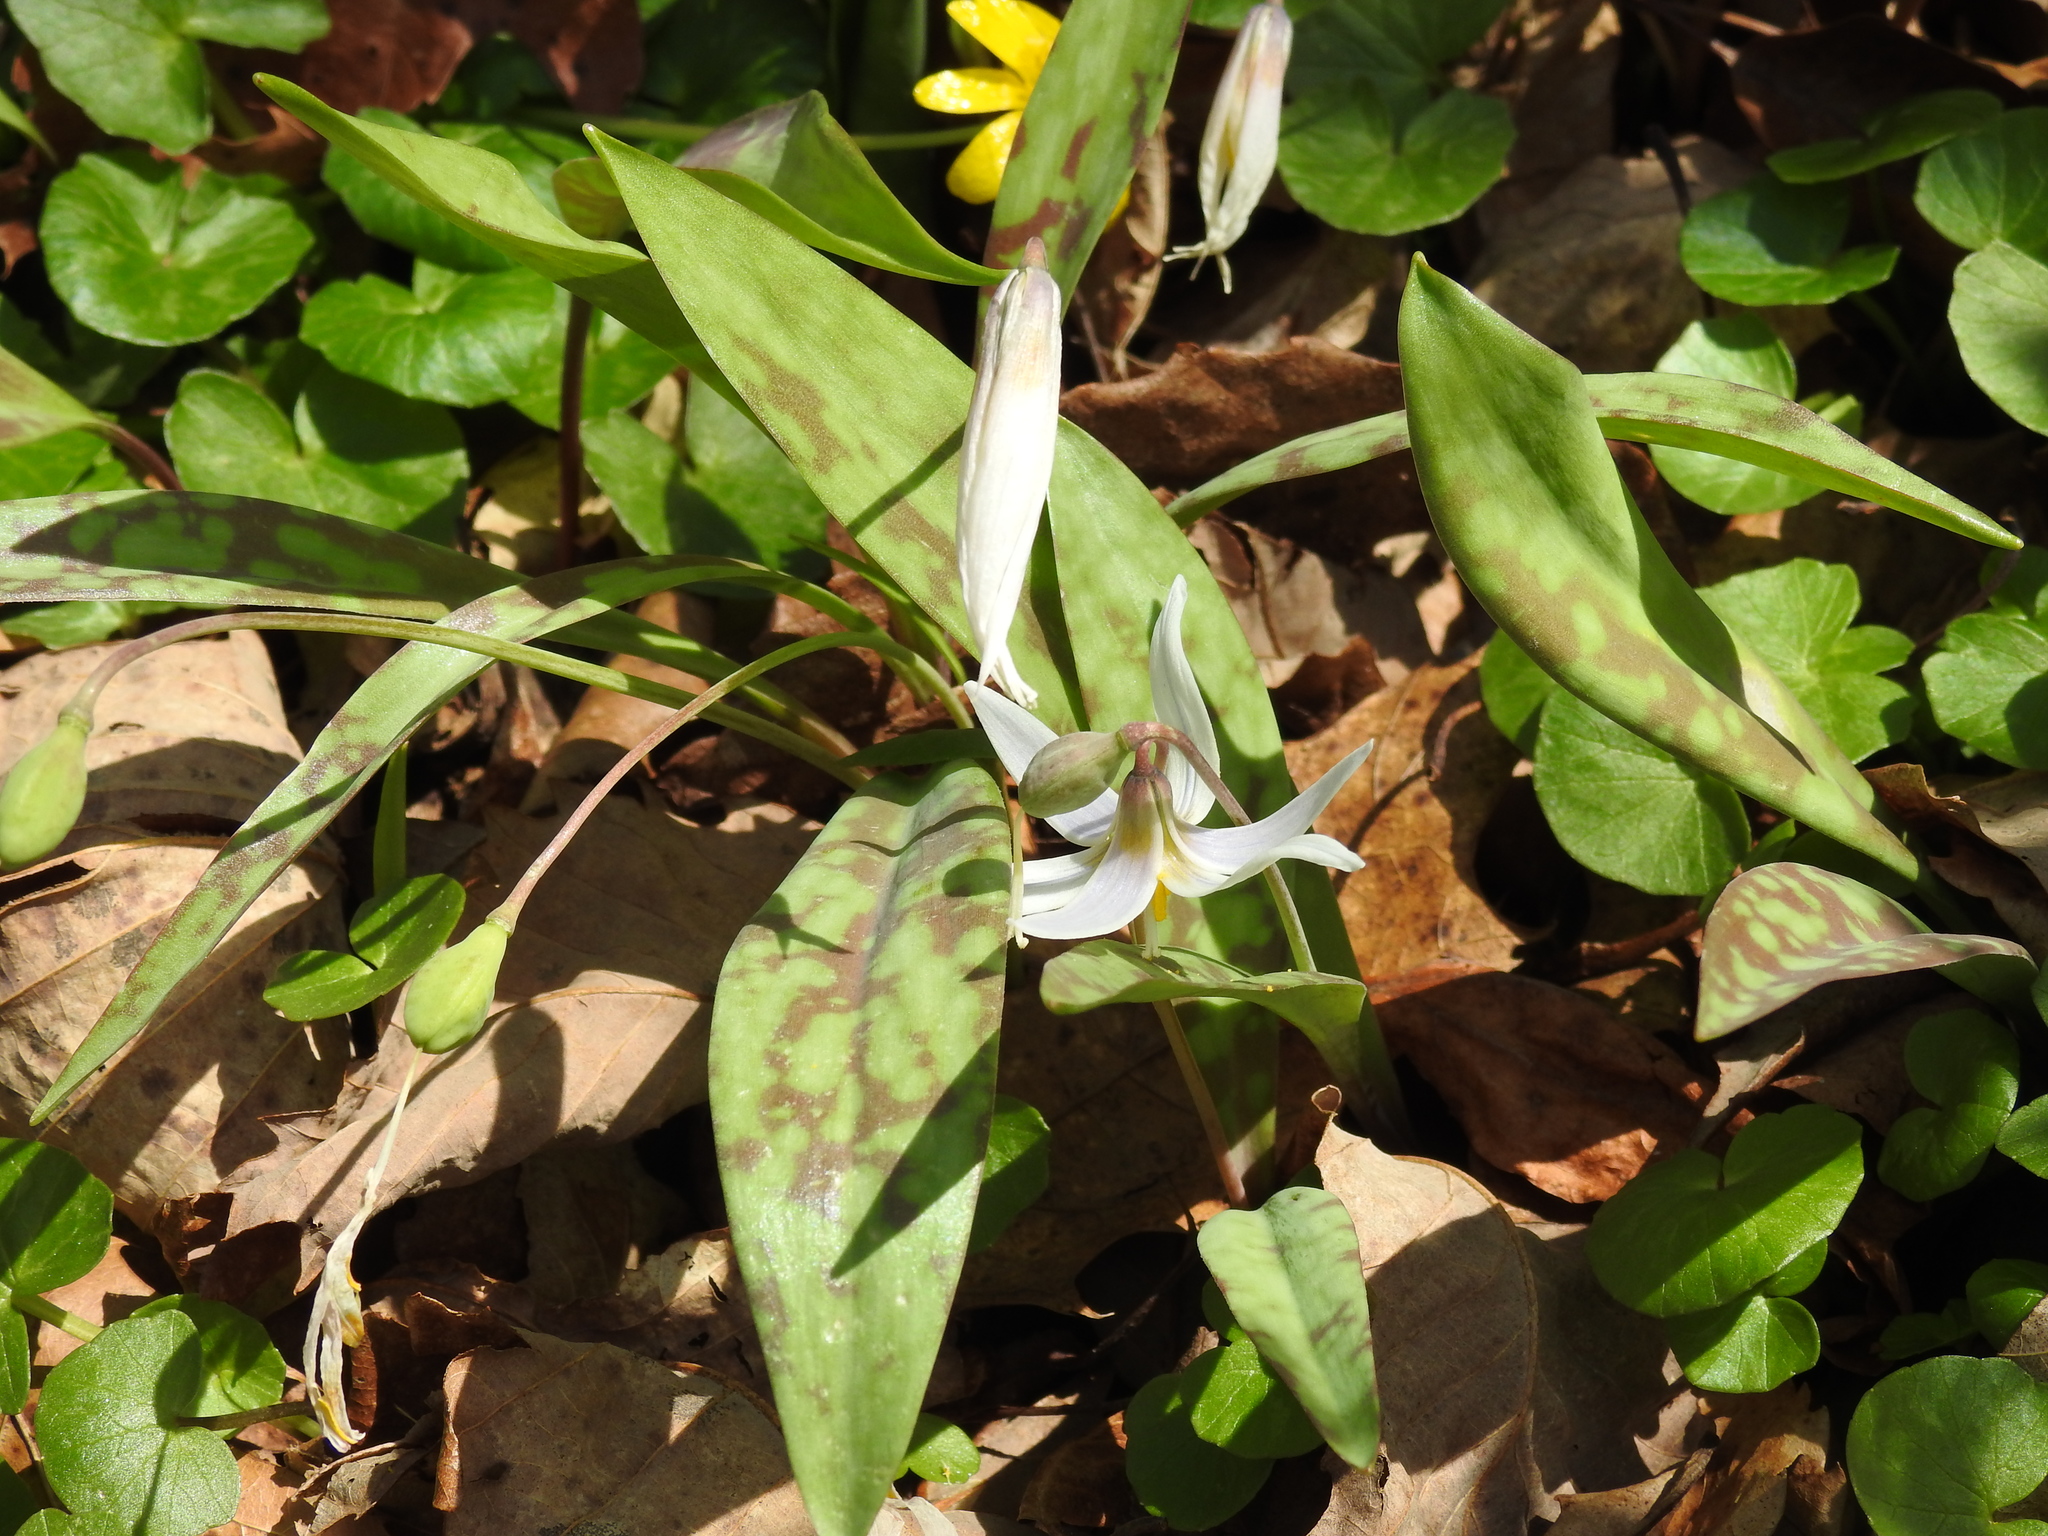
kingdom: Plantae
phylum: Tracheophyta
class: Liliopsida
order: Liliales
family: Liliaceae
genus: Erythronium
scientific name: Erythronium albidum
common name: White trout-lily
